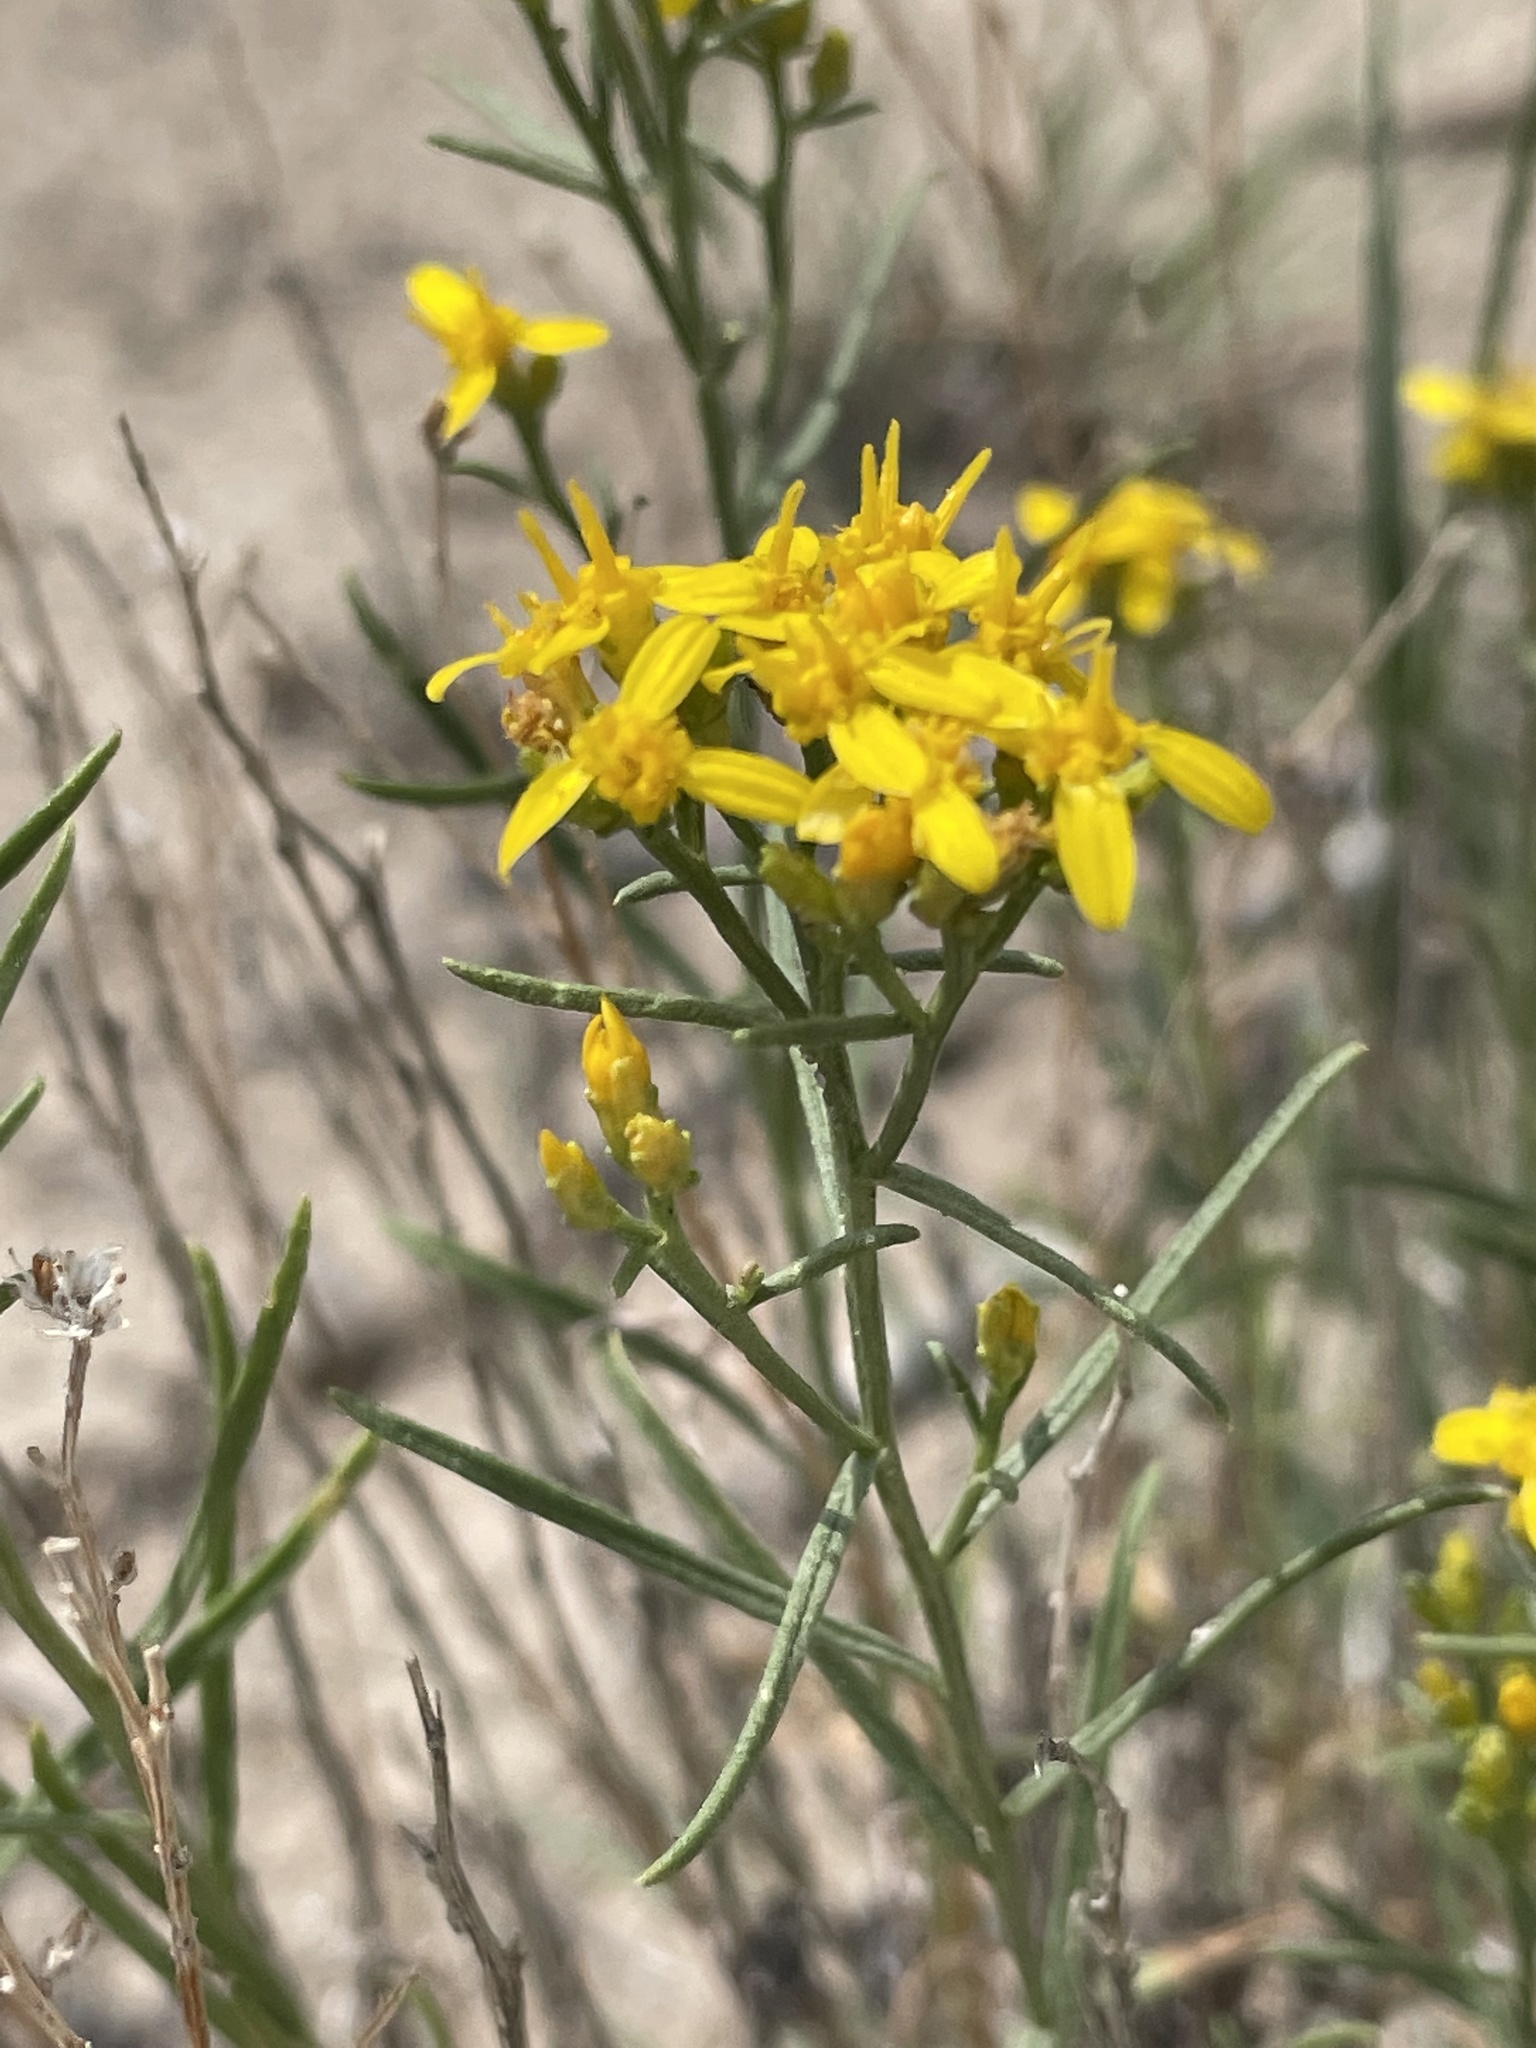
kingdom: Plantae
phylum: Tracheophyta
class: Magnoliopsida
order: Asterales
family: Asteraceae
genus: Gutierrezia
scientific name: Gutierrezia sarothrae
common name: Broom snakeweed
